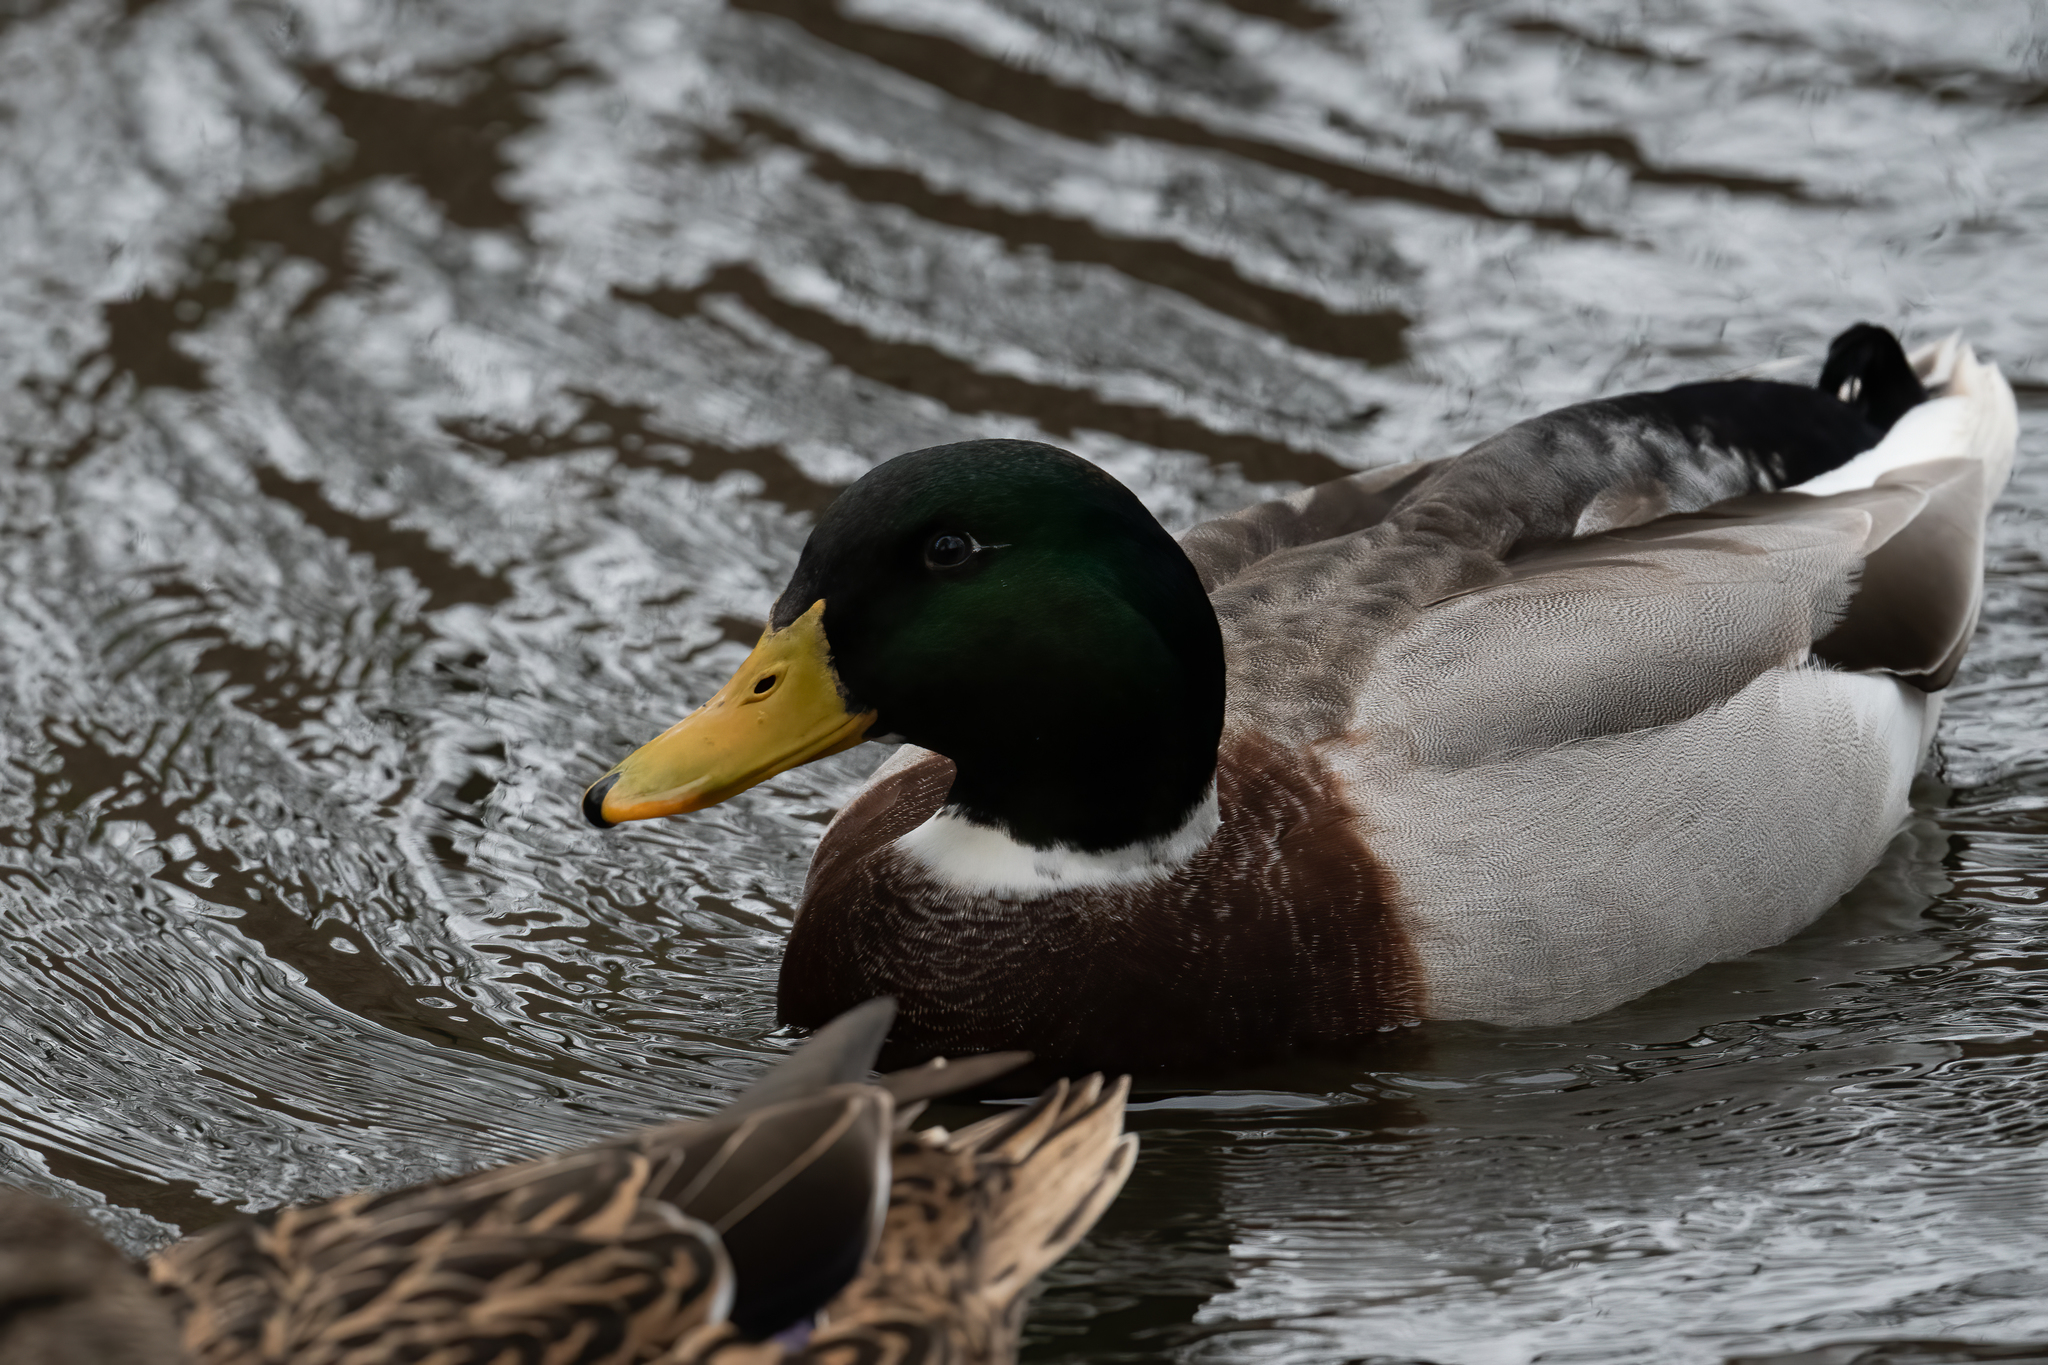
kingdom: Animalia
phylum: Chordata
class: Aves
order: Anseriformes
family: Anatidae
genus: Anas
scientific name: Anas platyrhynchos
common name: Mallard
